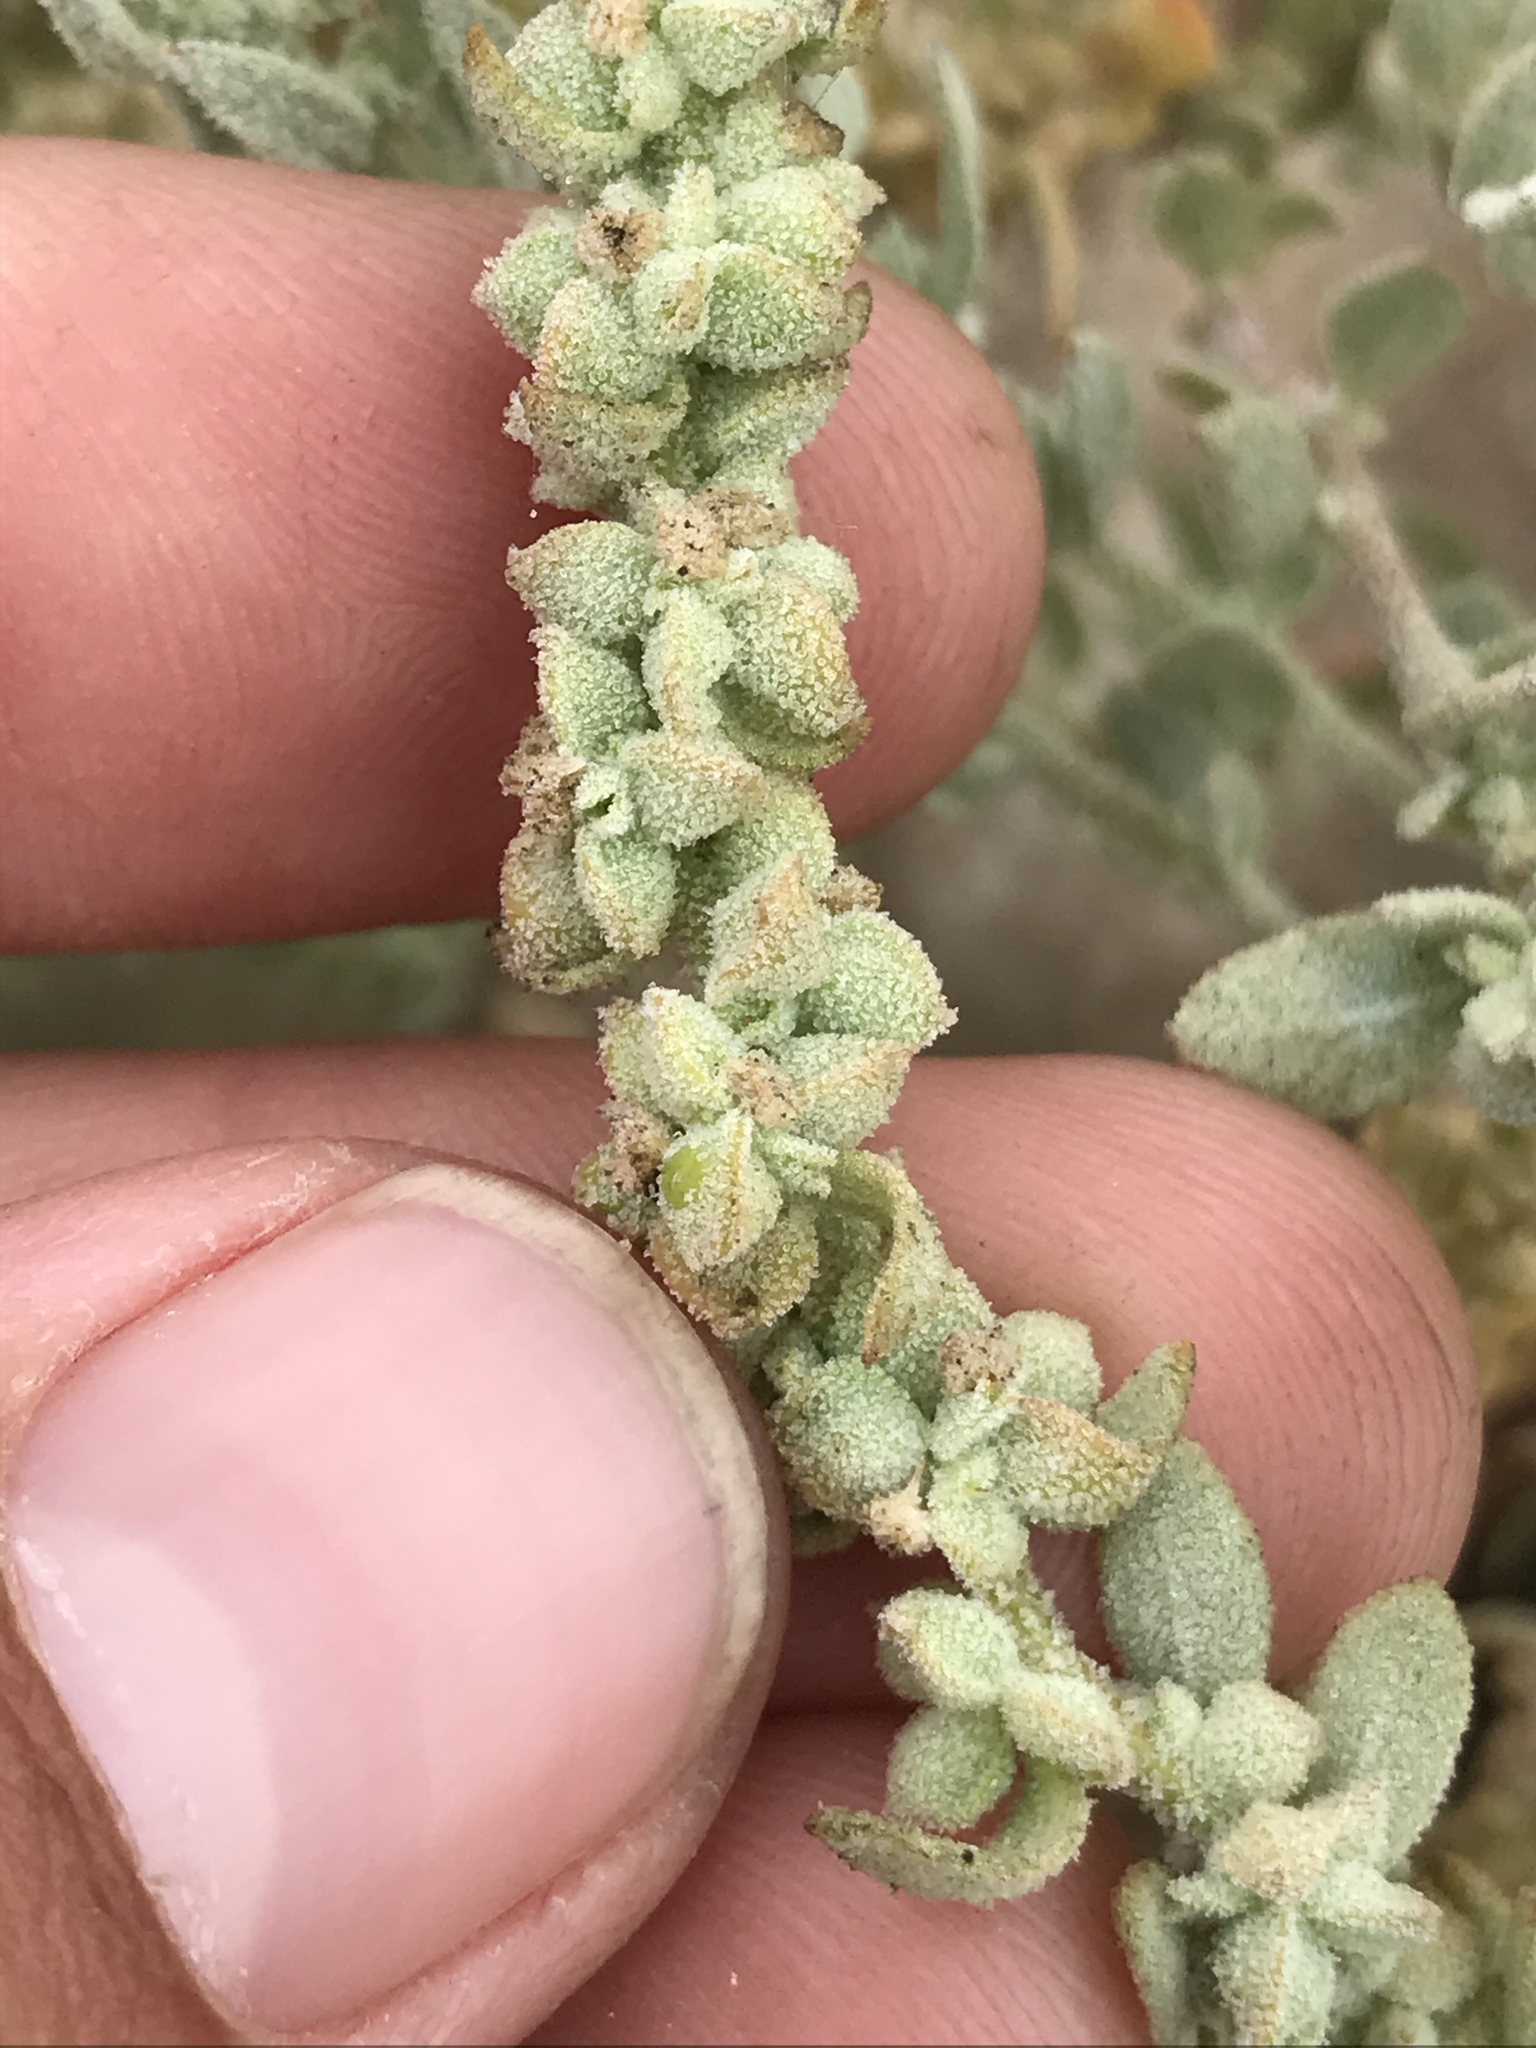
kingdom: Plantae
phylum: Tracheophyta
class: Magnoliopsida
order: Caryophyllales
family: Amaranthaceae
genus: Extriplex
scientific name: Extriplex californica
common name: California saltbush
